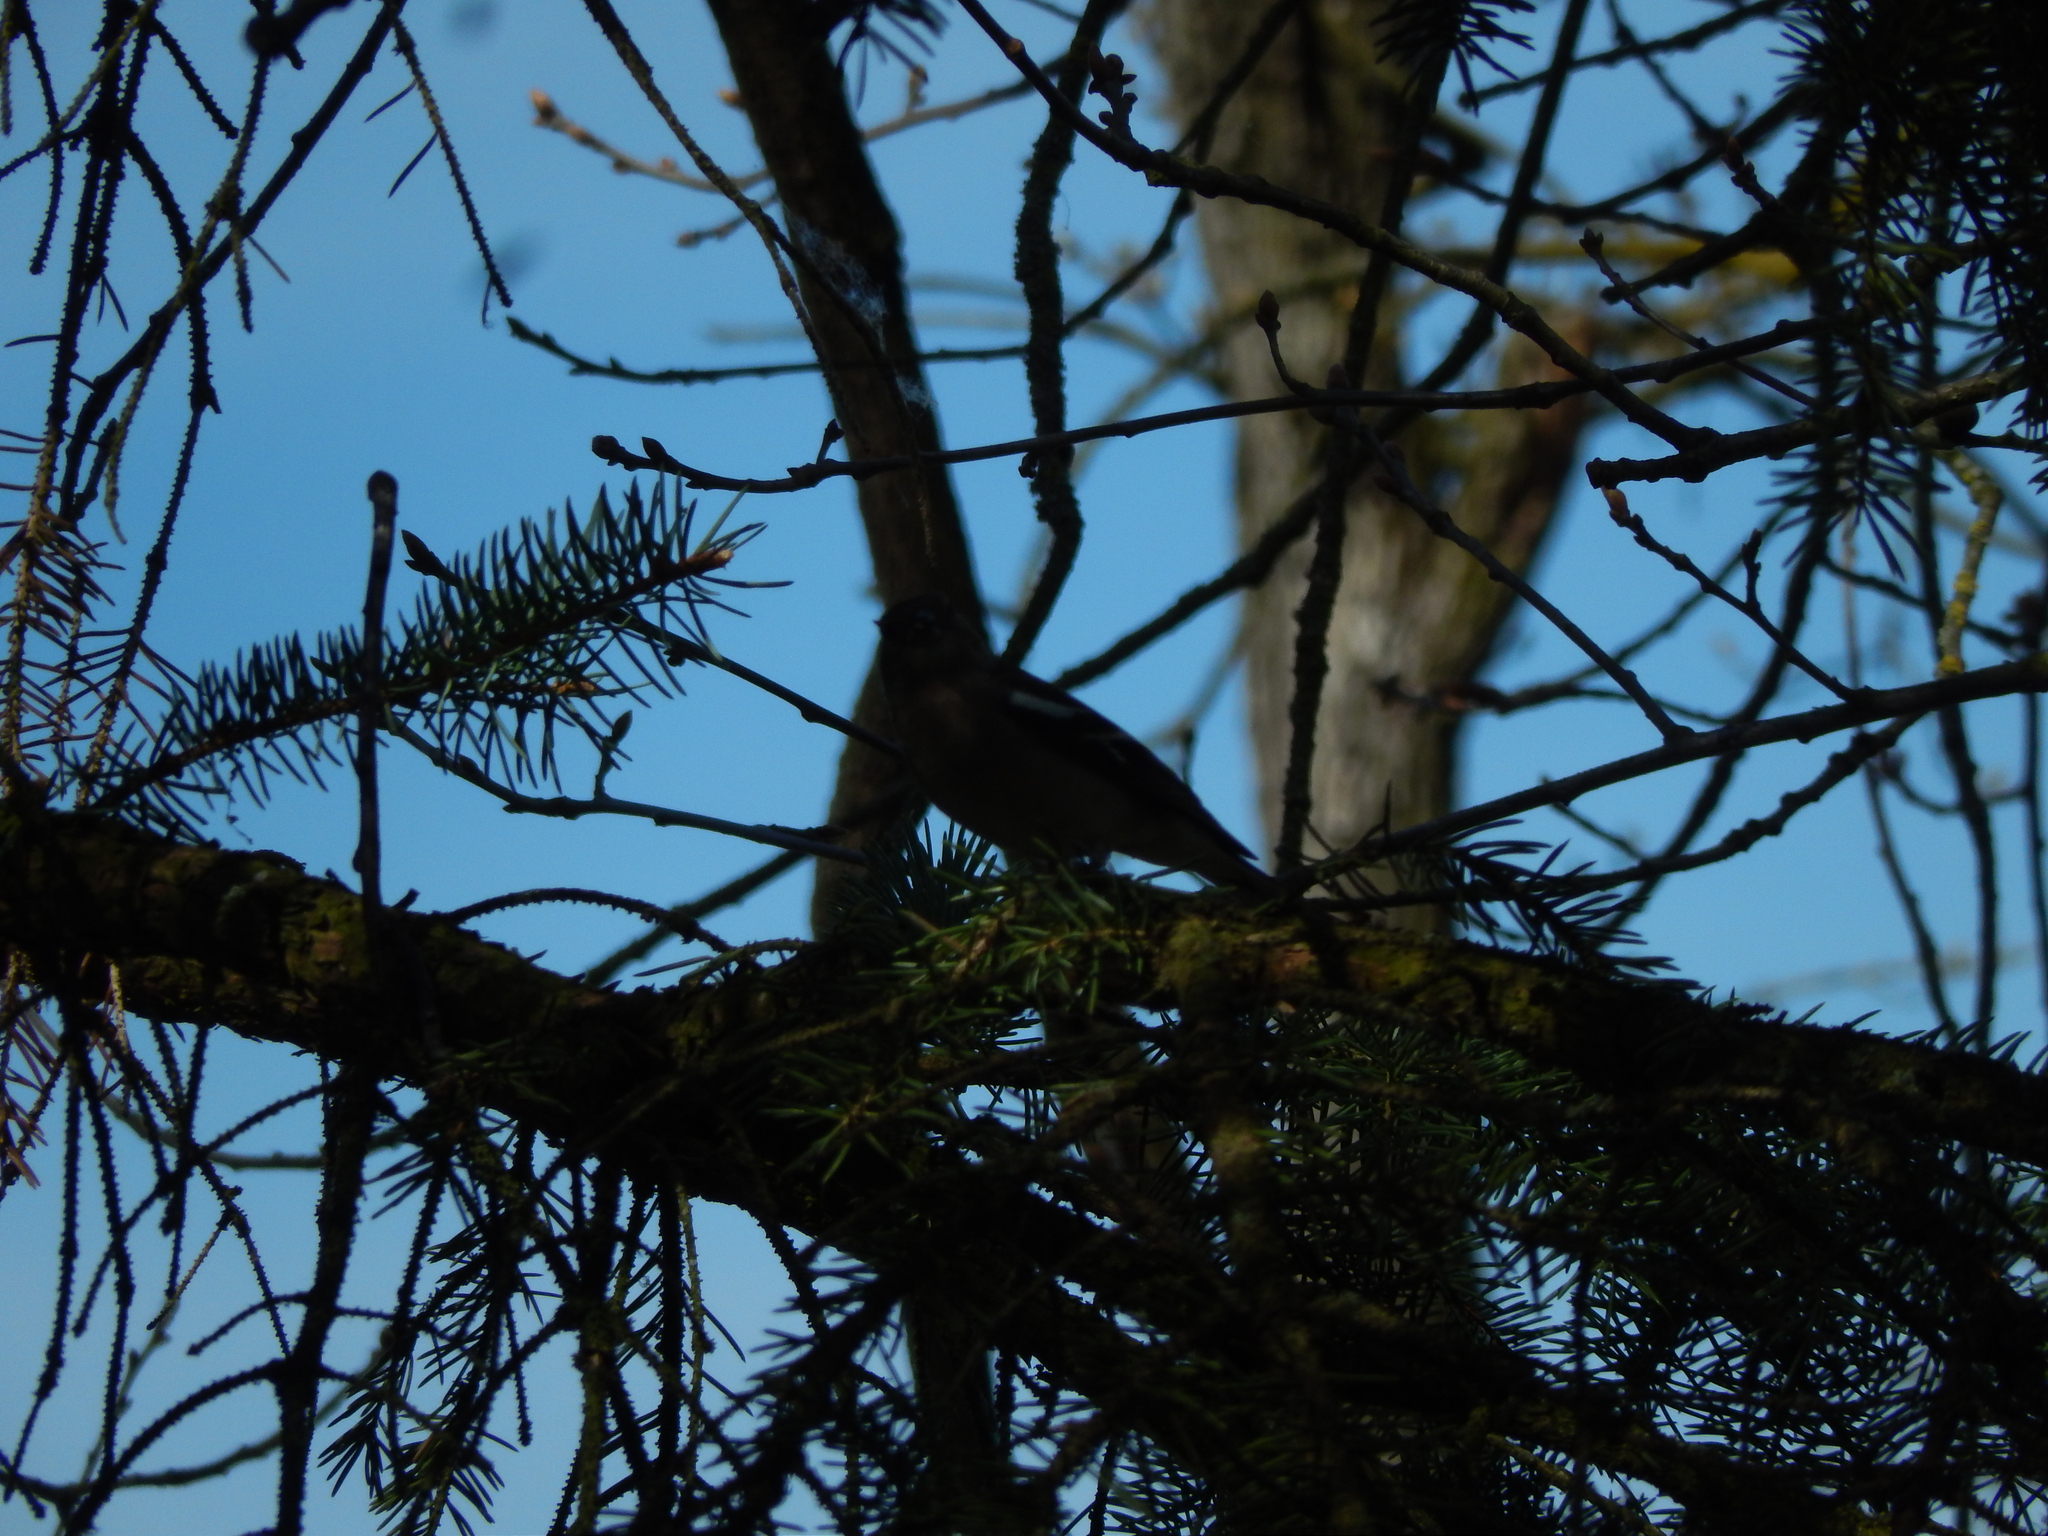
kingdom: Animalia
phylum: Chordata
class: Aves
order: Passeriformes
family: Fringillidae
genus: Fringilla
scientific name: Fringilla coelebs
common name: Common chaffinch
